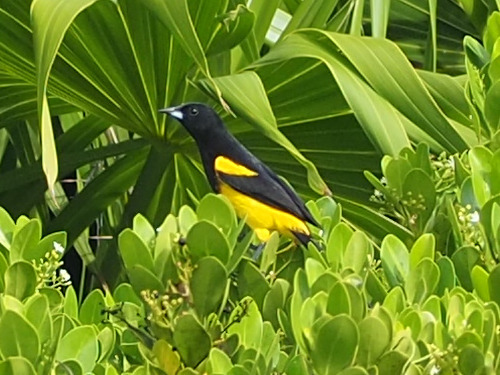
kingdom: Animalia
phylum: Chordata
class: Aves
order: Passeriformes
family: Icteridae
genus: Icterus
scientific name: Icterus prosthemelas
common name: Black-cowled oriole
